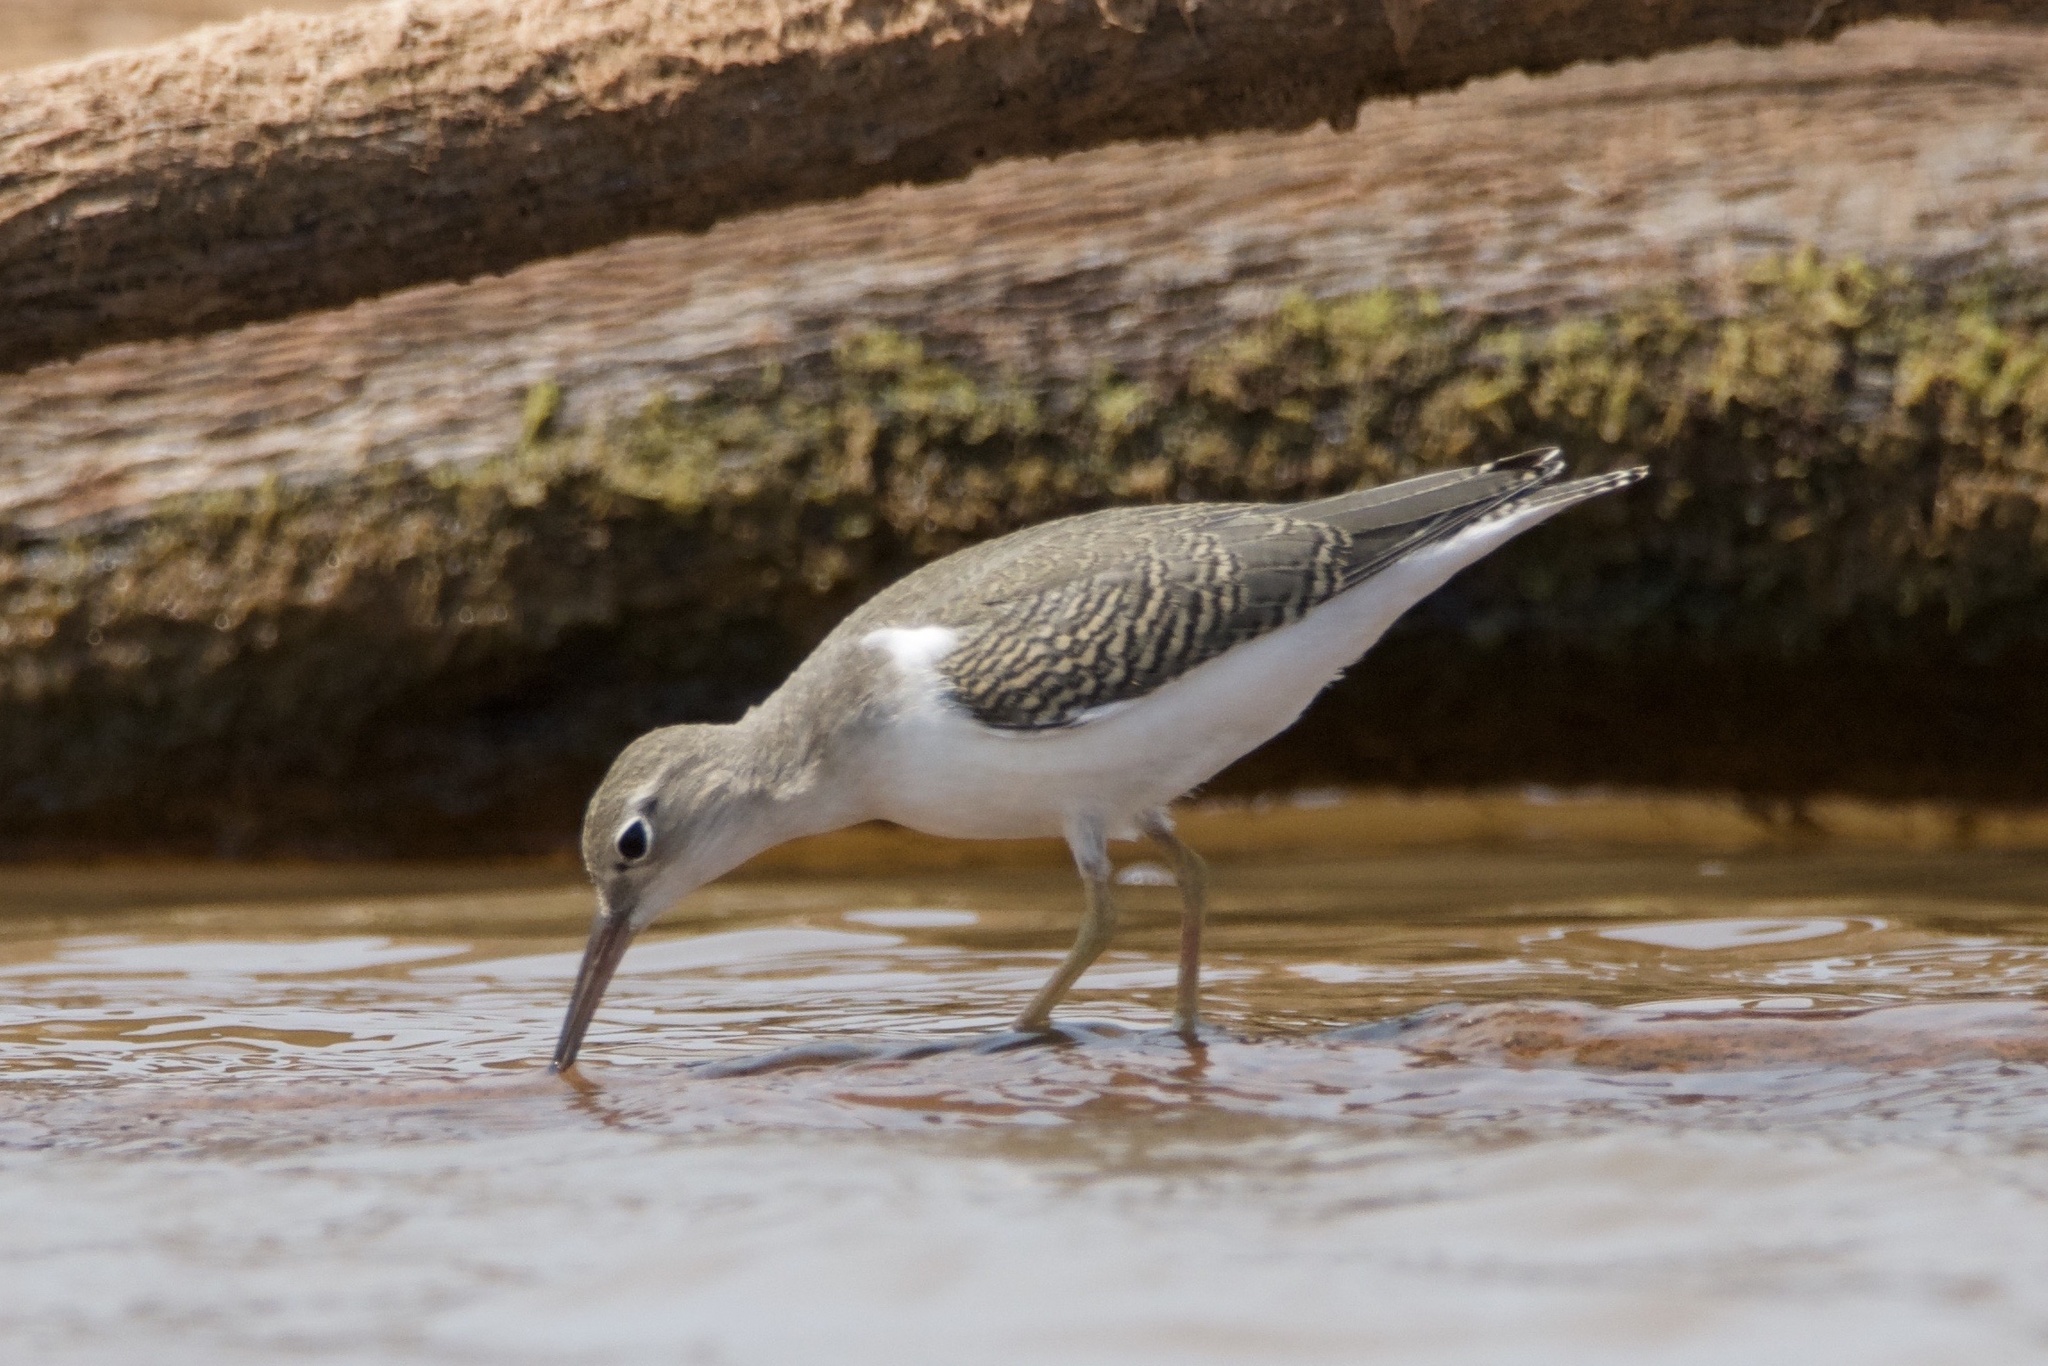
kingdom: Animalia
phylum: Chordata
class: Aves
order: Charadriiformes
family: Scolopacidae
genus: Actitis
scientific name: Actitis macularius
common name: Spotted sandpiper
